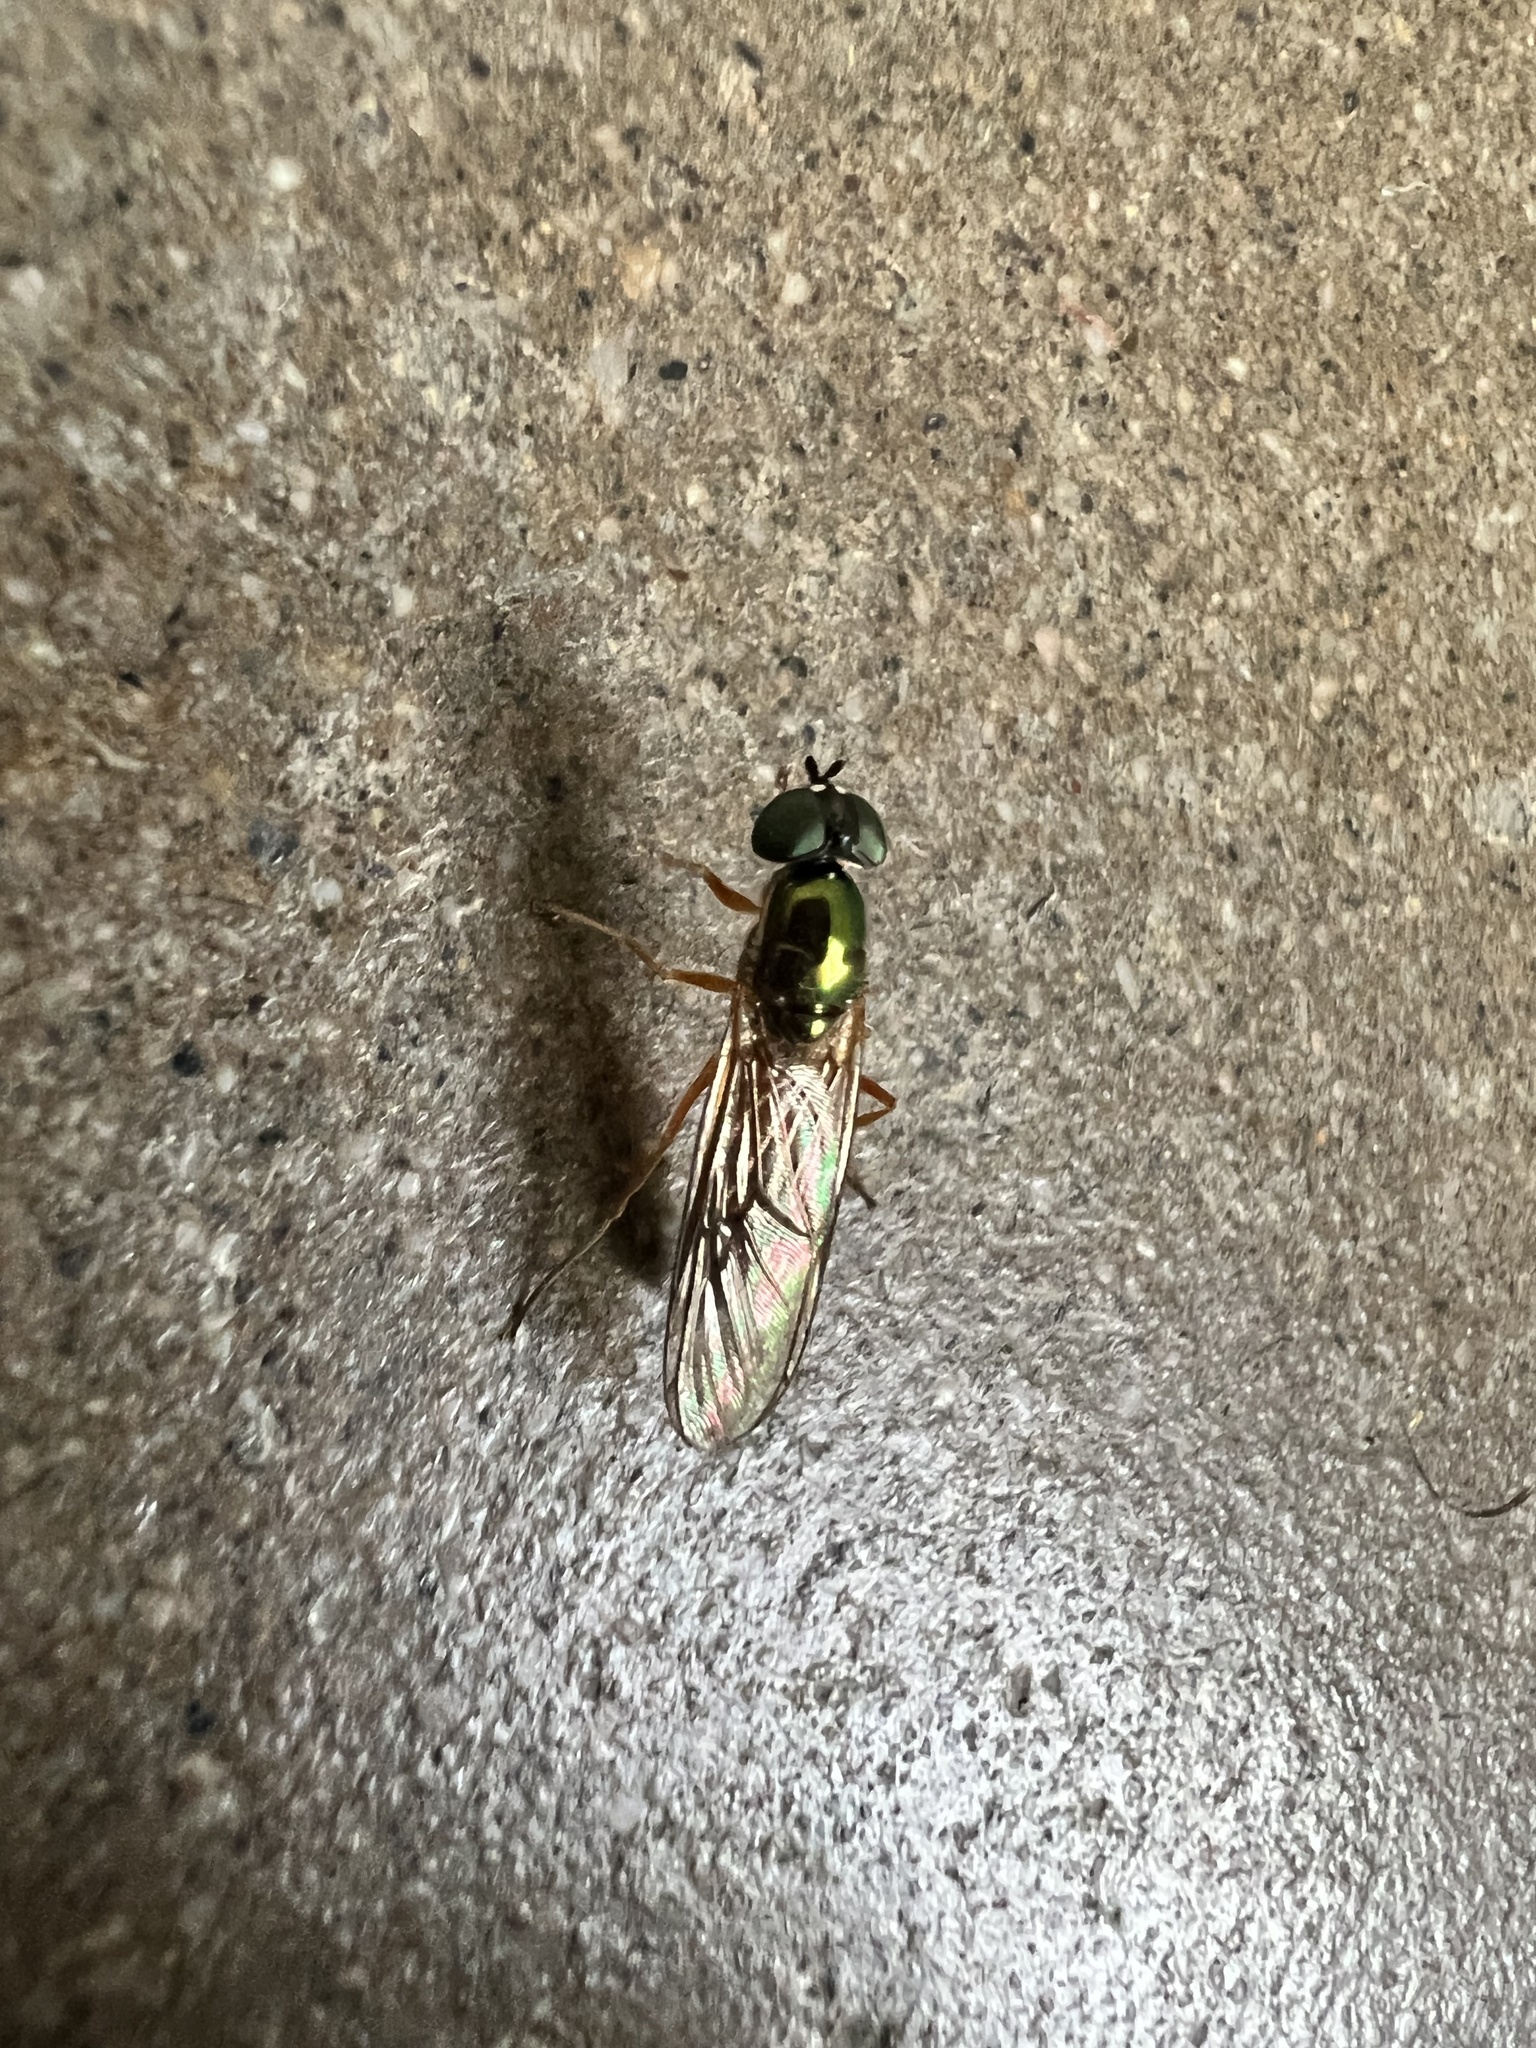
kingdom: Animalia
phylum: Arthropoda
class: Insecta
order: Diptera
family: Stratiomyidae
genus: Sargus
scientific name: Sargus bipunctatus
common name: Twin-spot centurion
